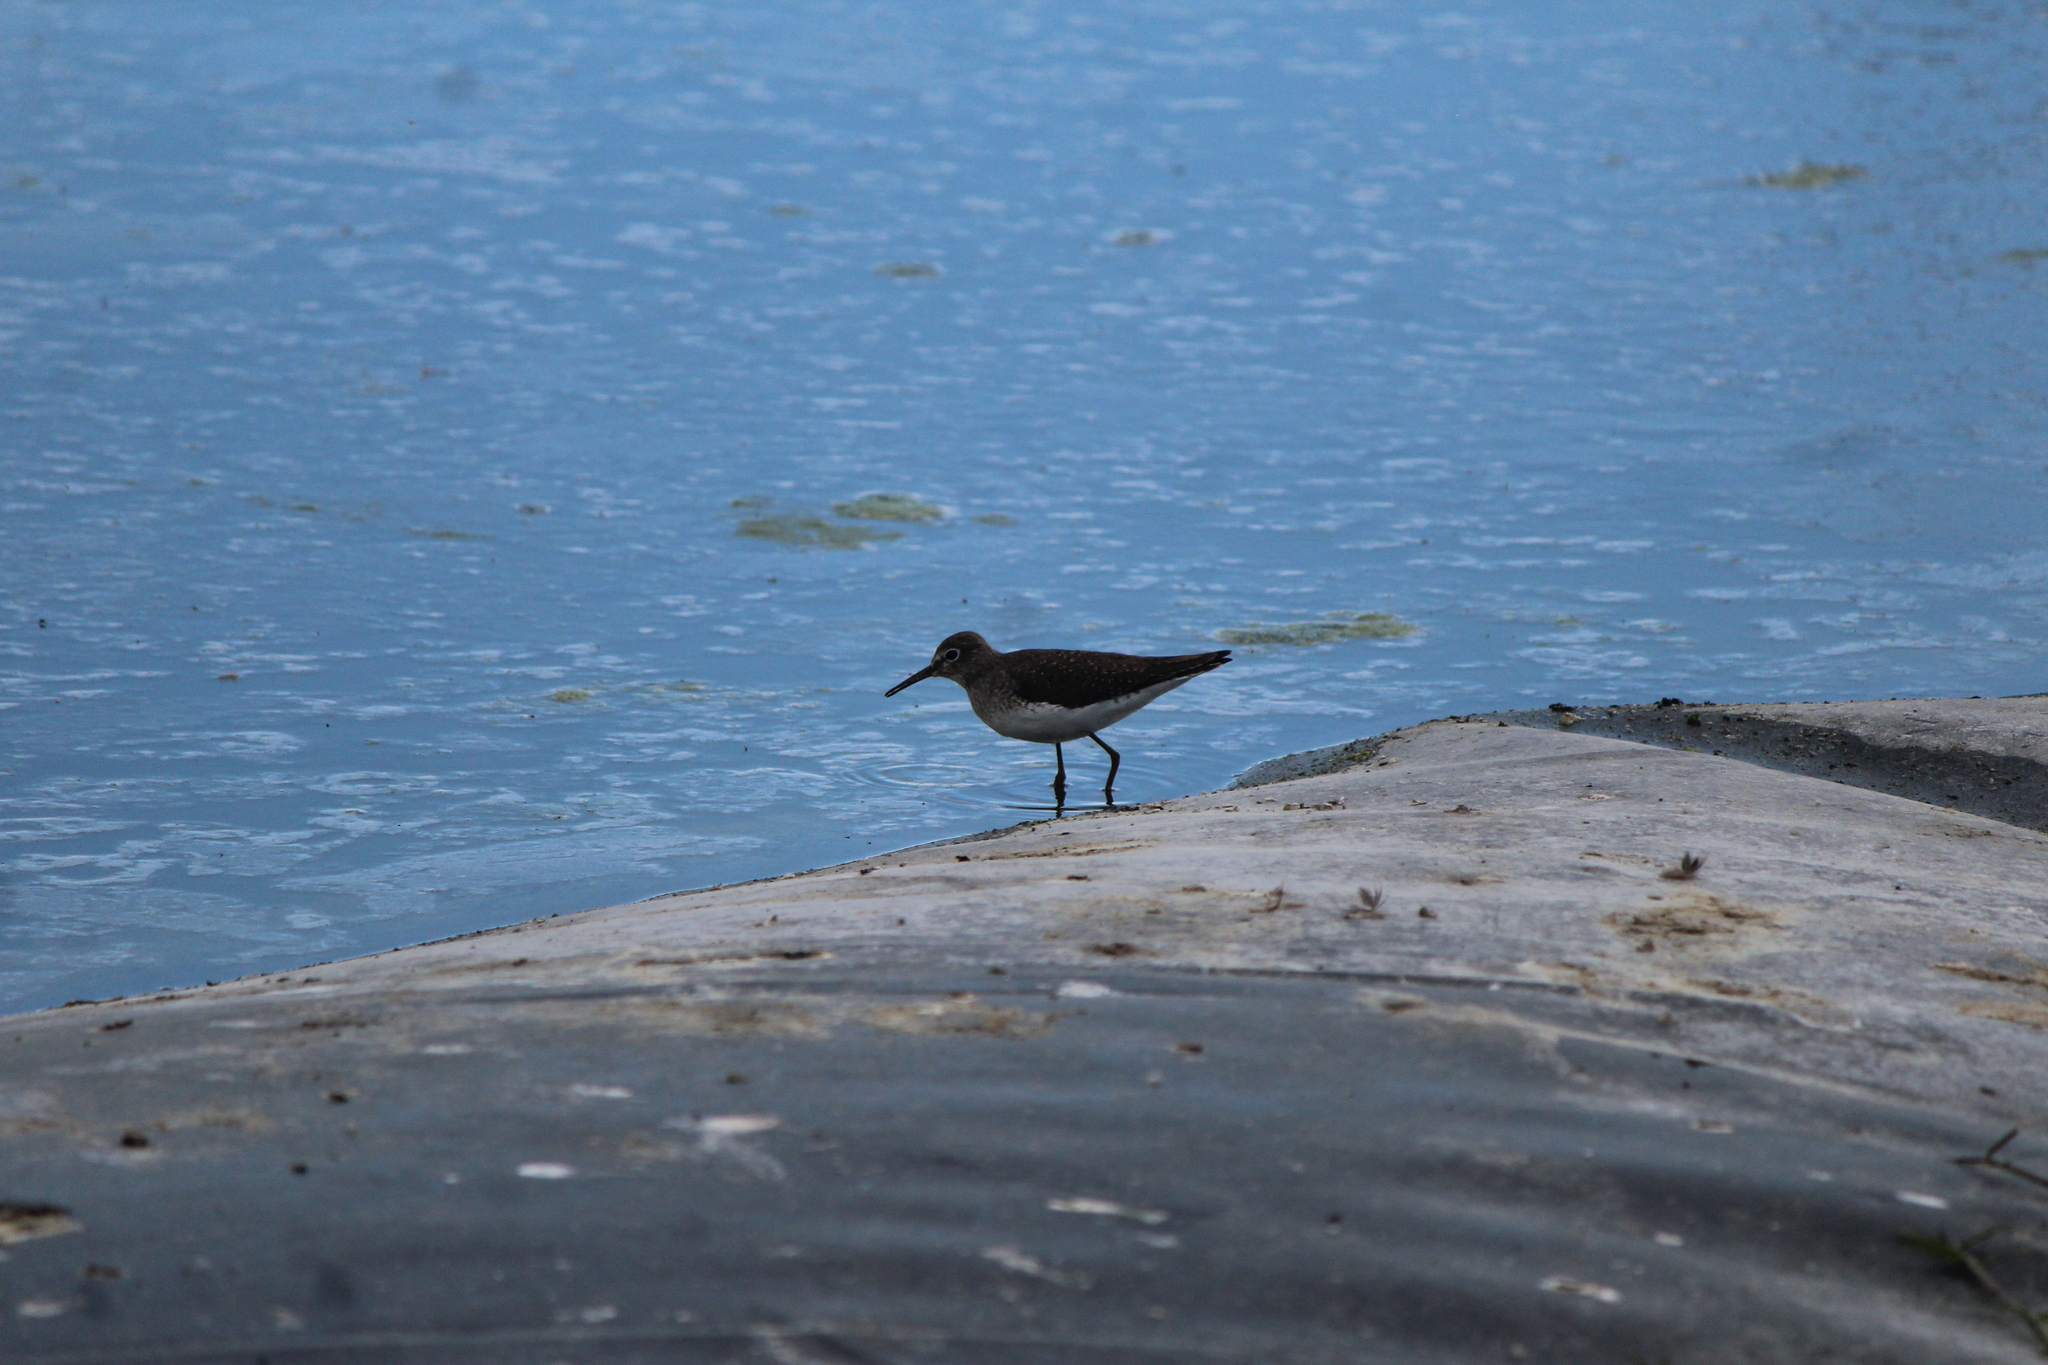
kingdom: Animalia
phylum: Chordata
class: Aves
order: Charadriiformes
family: Scolopacidae
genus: Tringa
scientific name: Tringa solitaria
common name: Solitary sandpiper
